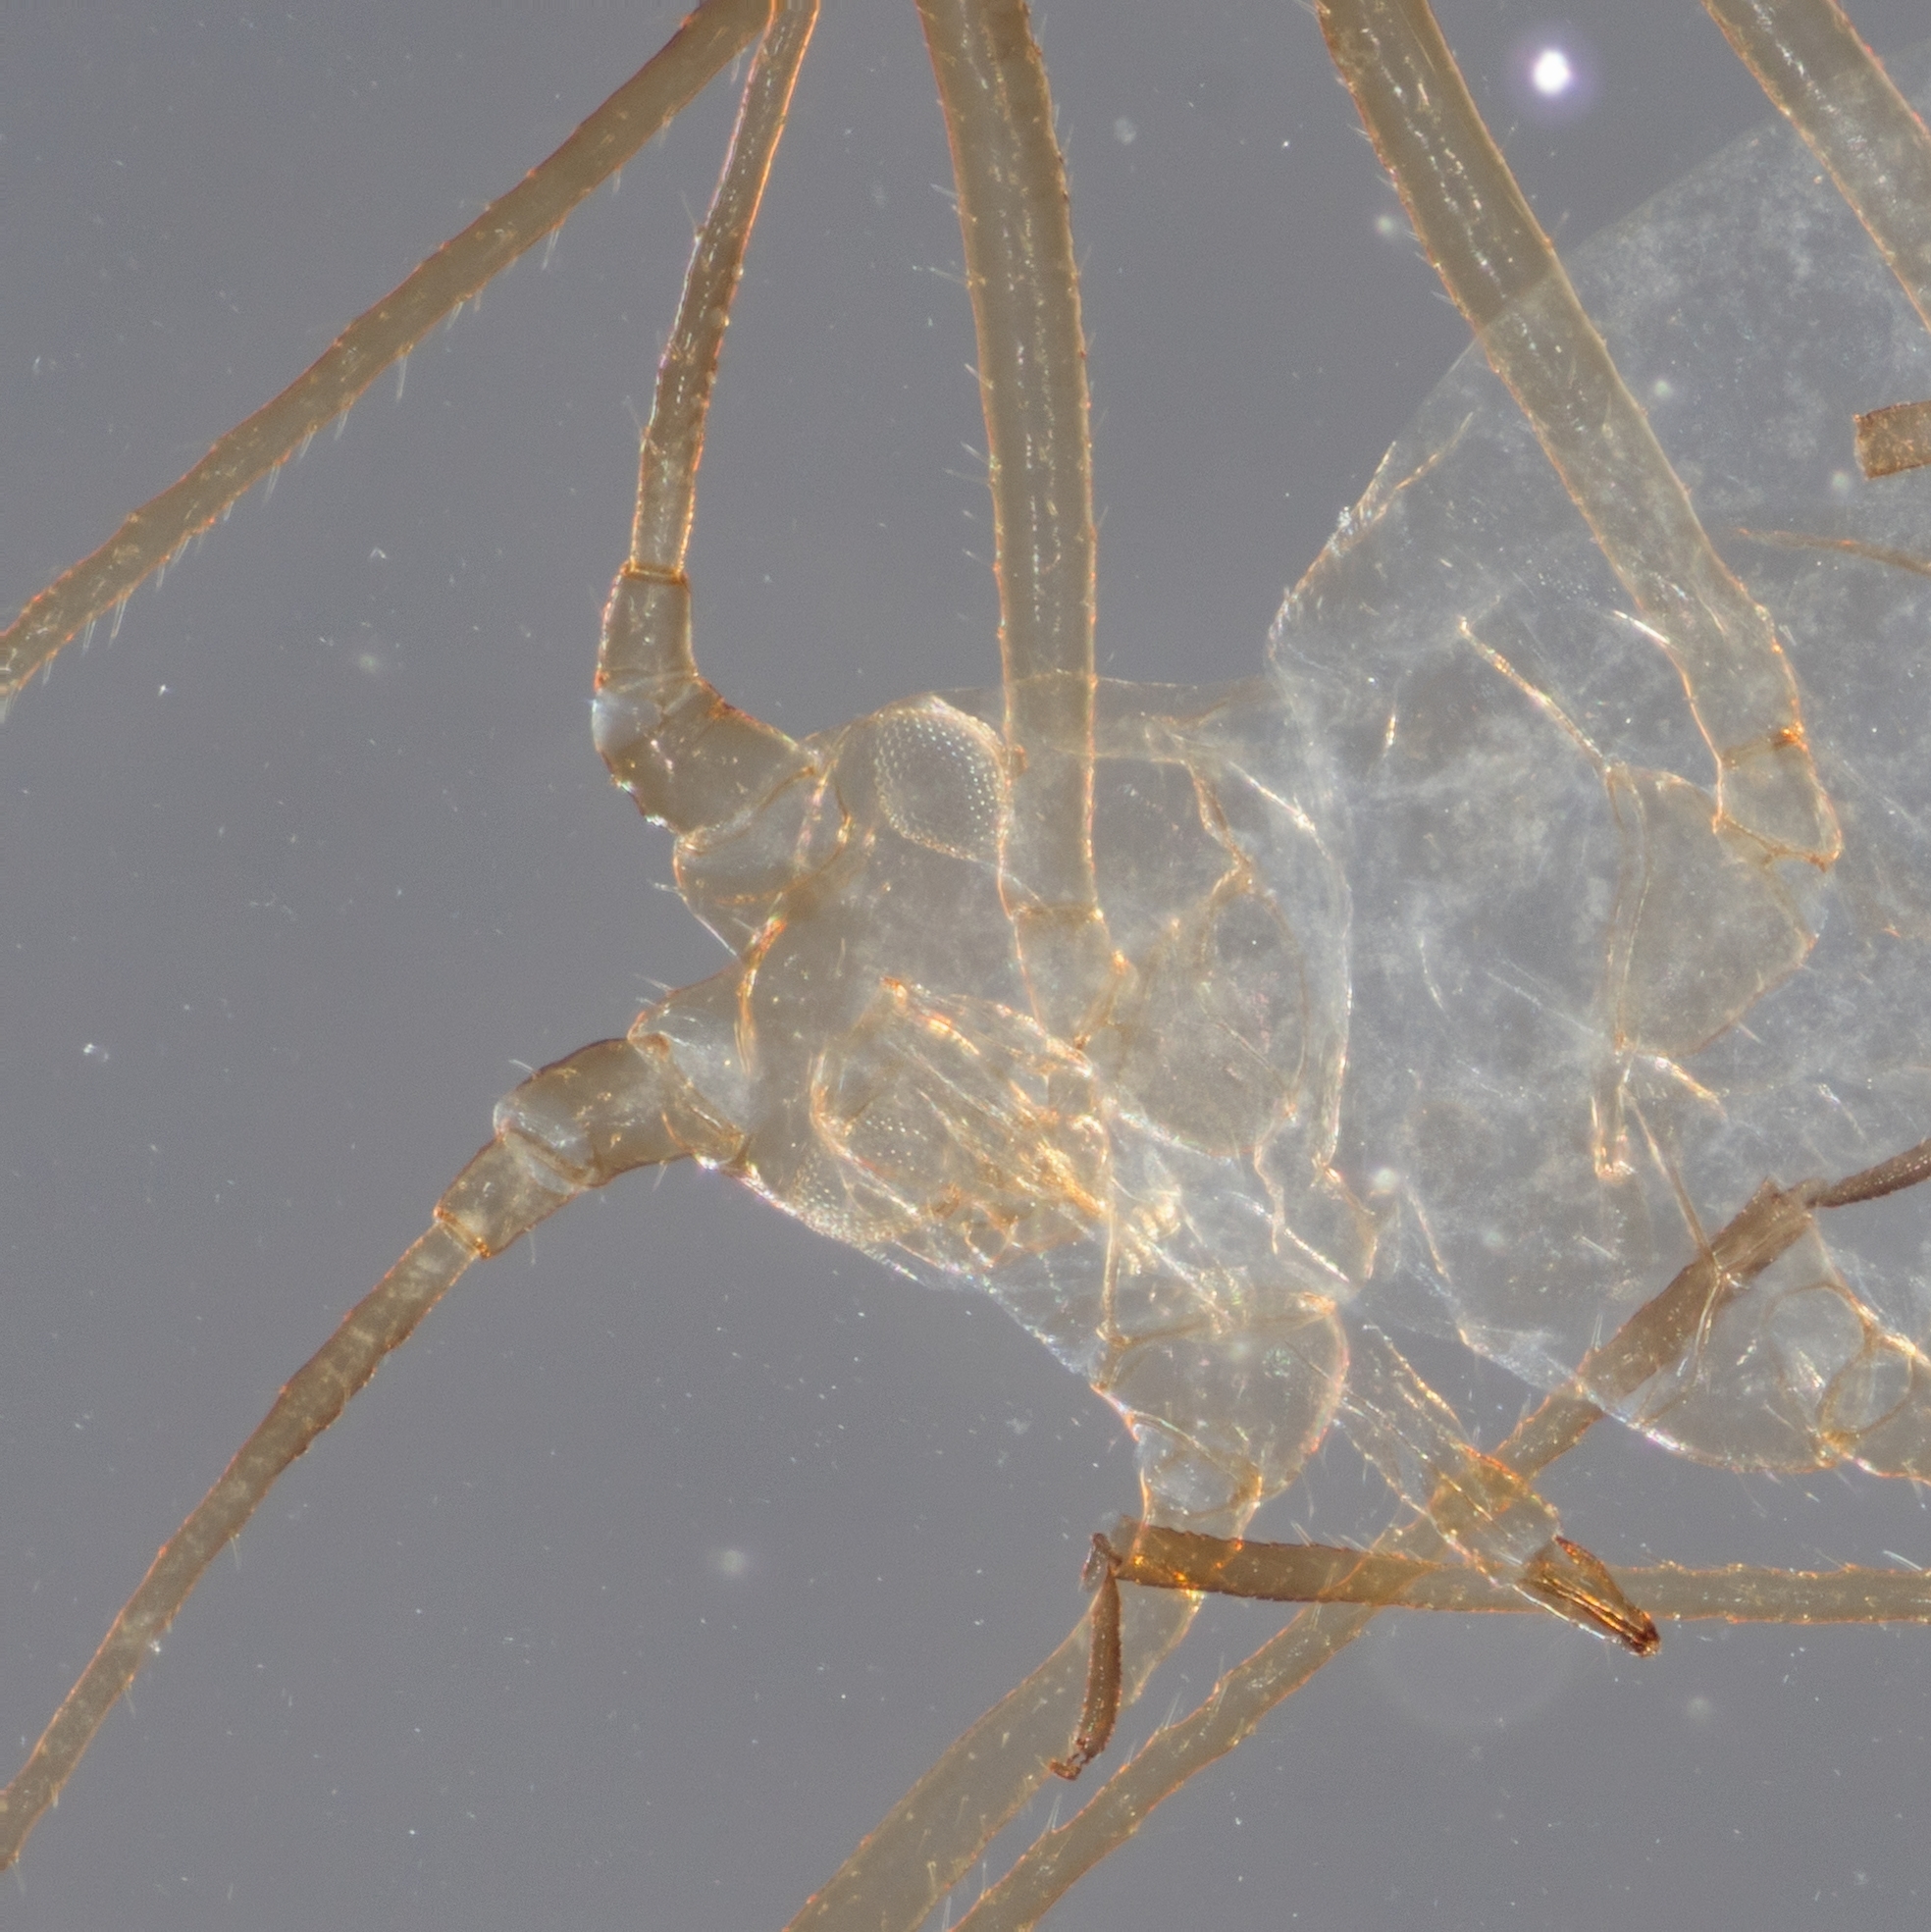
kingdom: Animalia
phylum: Arthropoda
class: Insecta
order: Hemiptera
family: Aphididae
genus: Macrosiphum
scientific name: Macrosiphum euphorbiae
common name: Potato aphid
